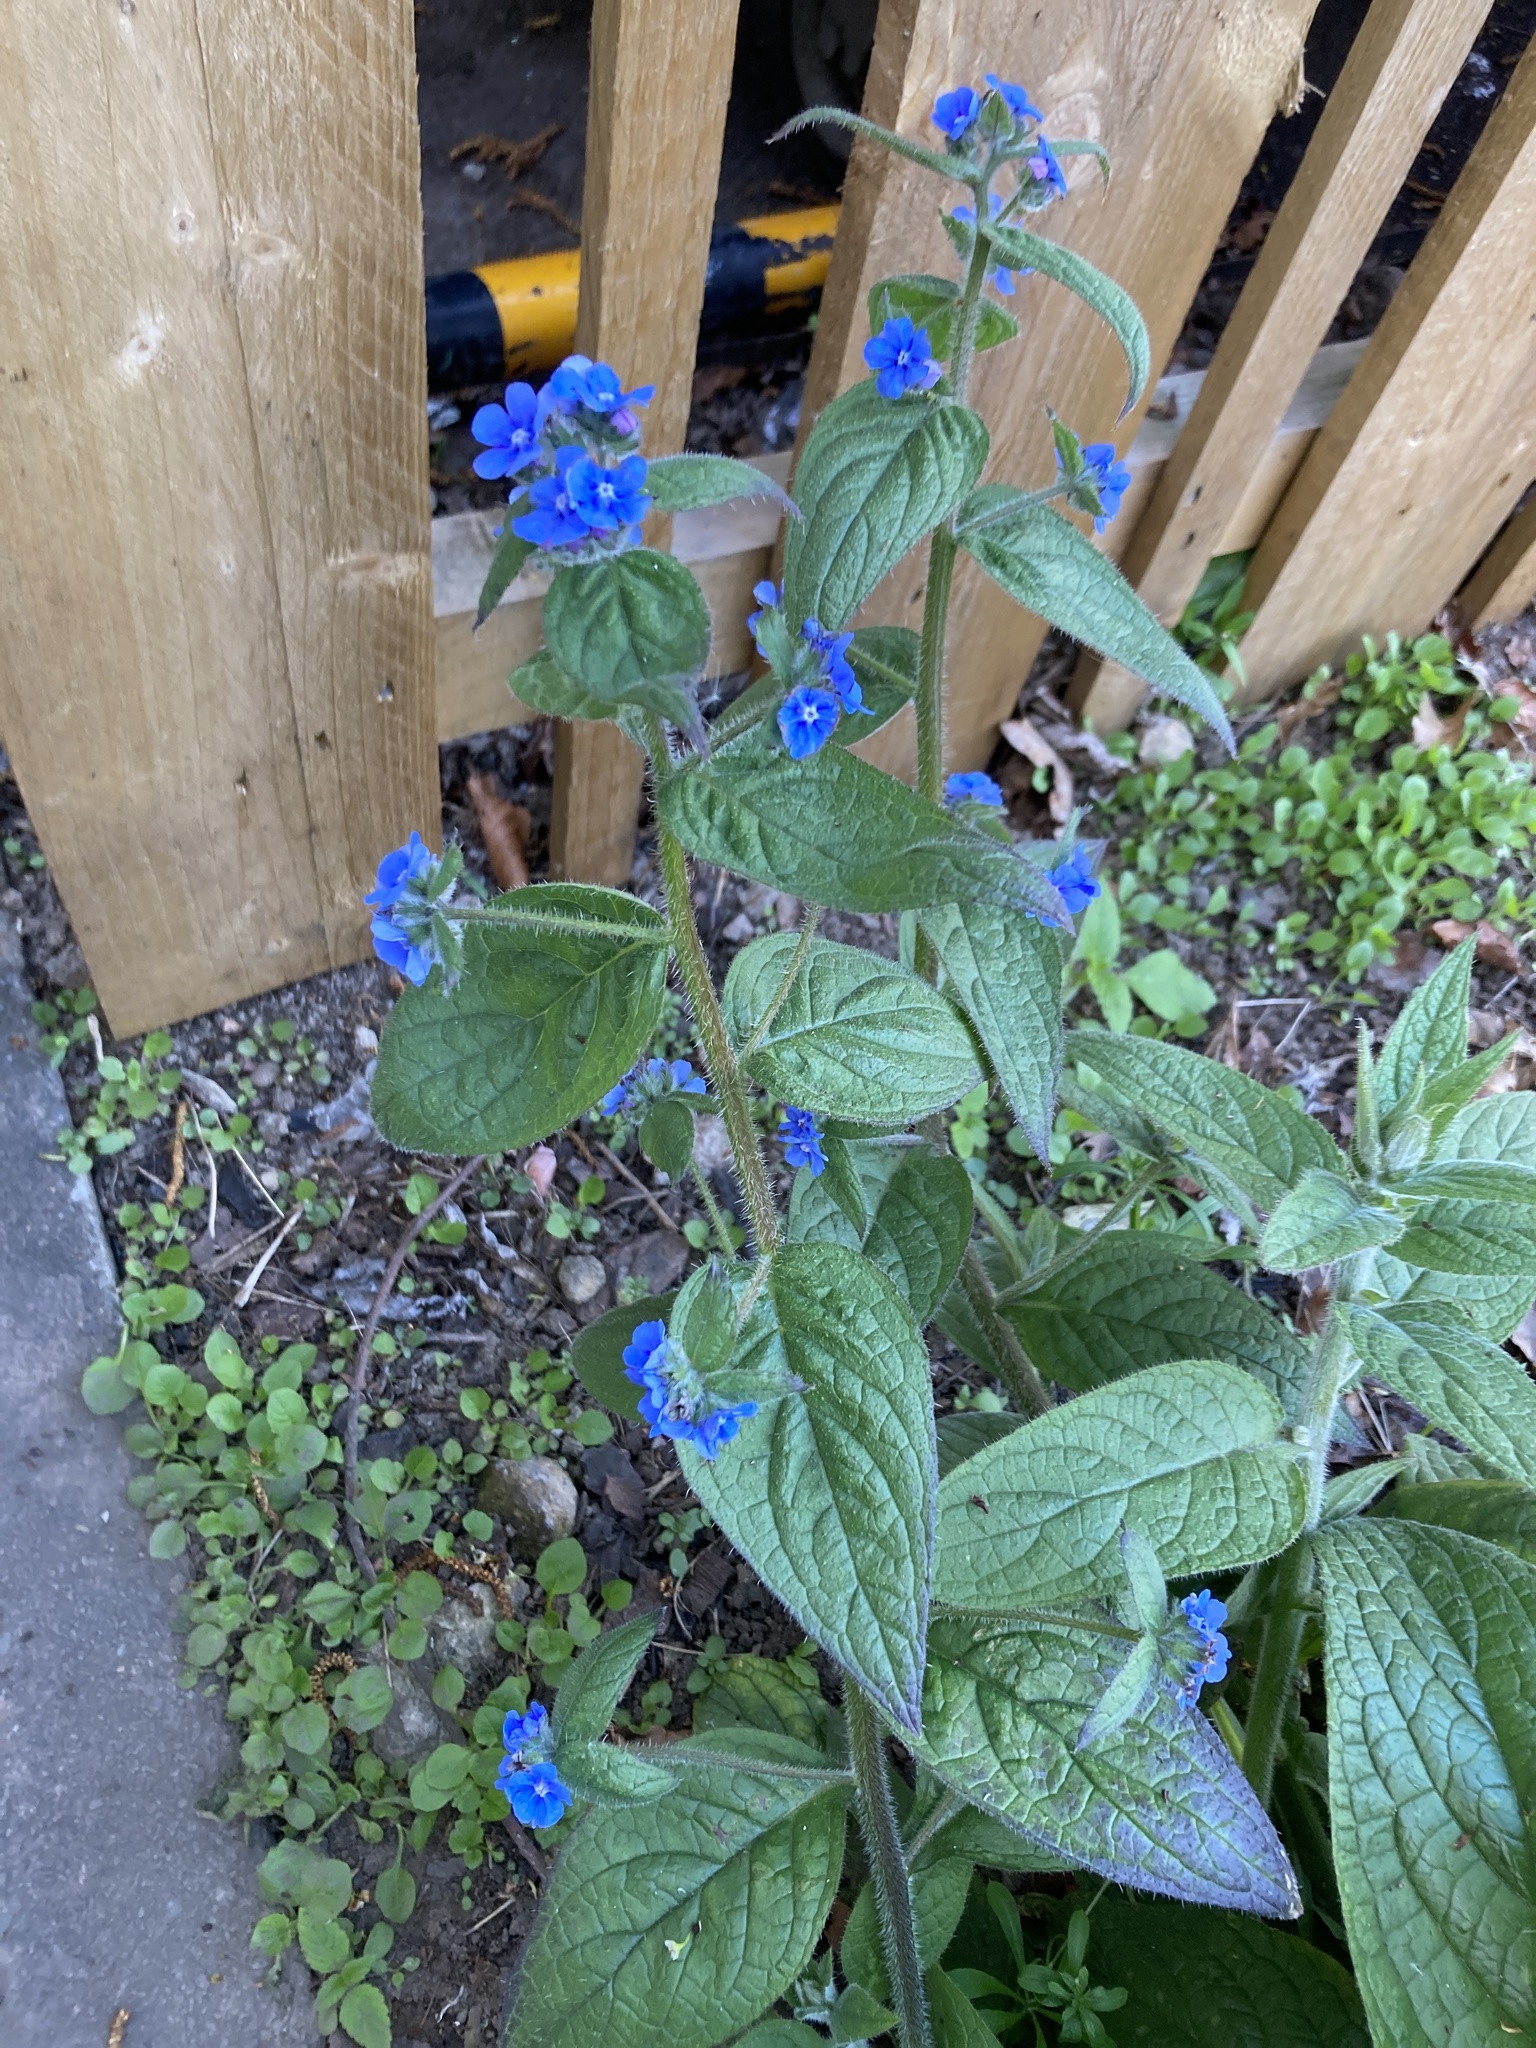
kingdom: Plantae
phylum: Tracheophyta
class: Magnoliopsida
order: Boraginales
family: Boraginaceae
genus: Pentaglottis
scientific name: Pentaglottis sempervirens
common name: Green alkanet
